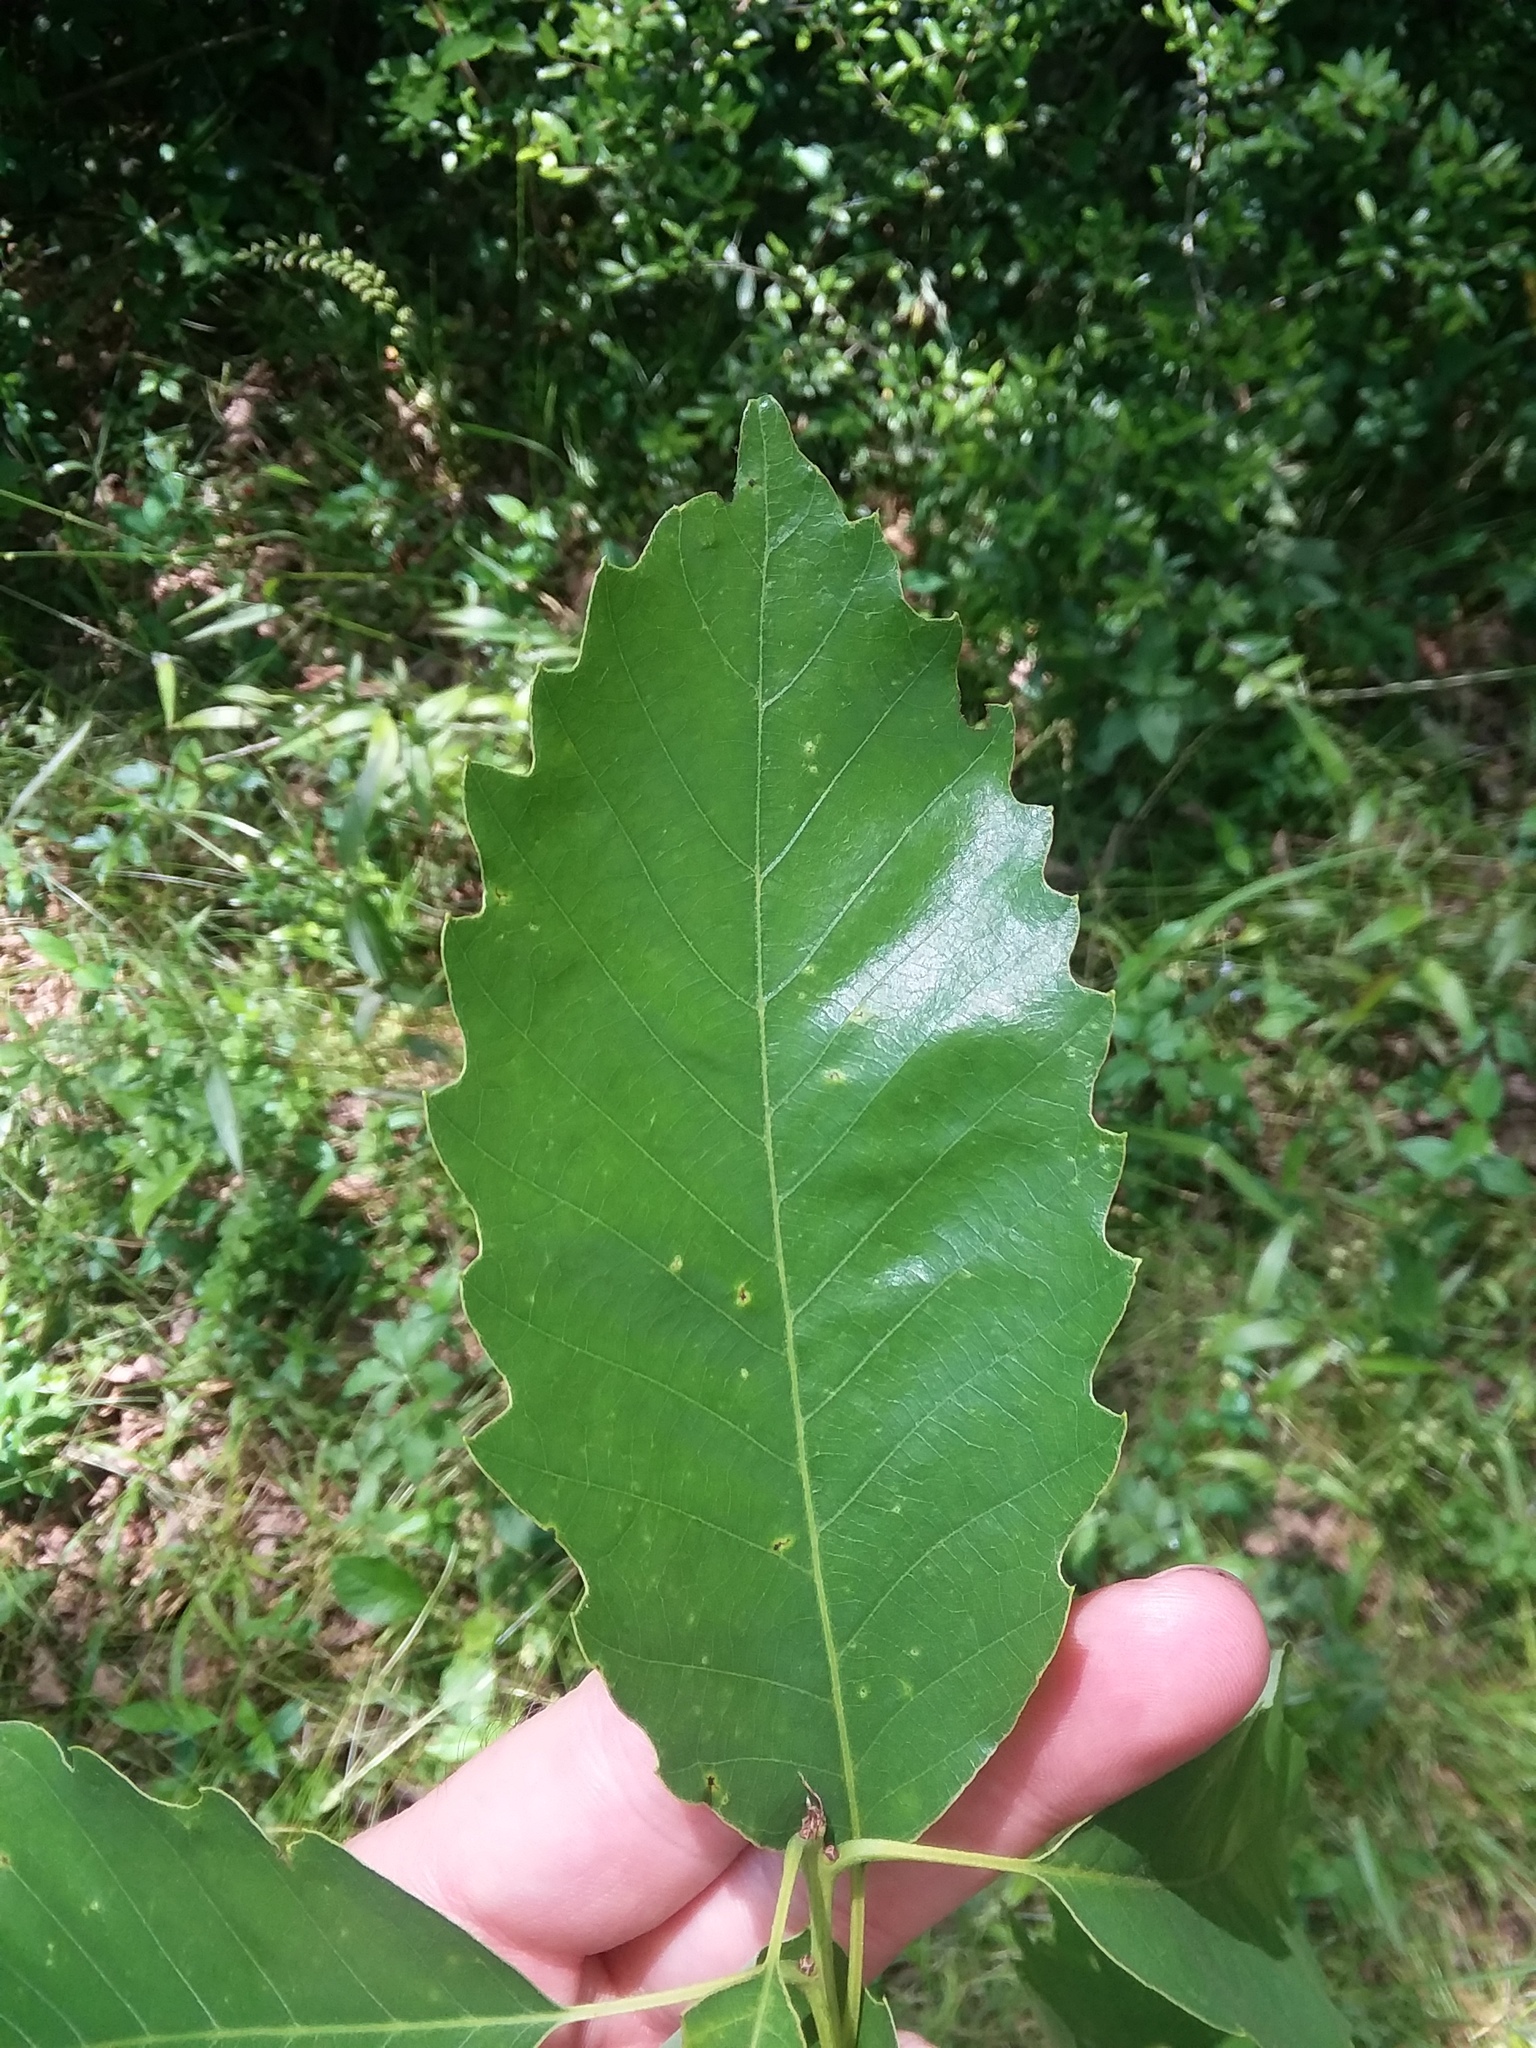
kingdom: Plantae
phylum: Tracheophyta
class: Magnoliopsida
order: Fagales
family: Fagaceae
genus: Quercus
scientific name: Quercus muehlenbergii
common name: Chinkapin oak
